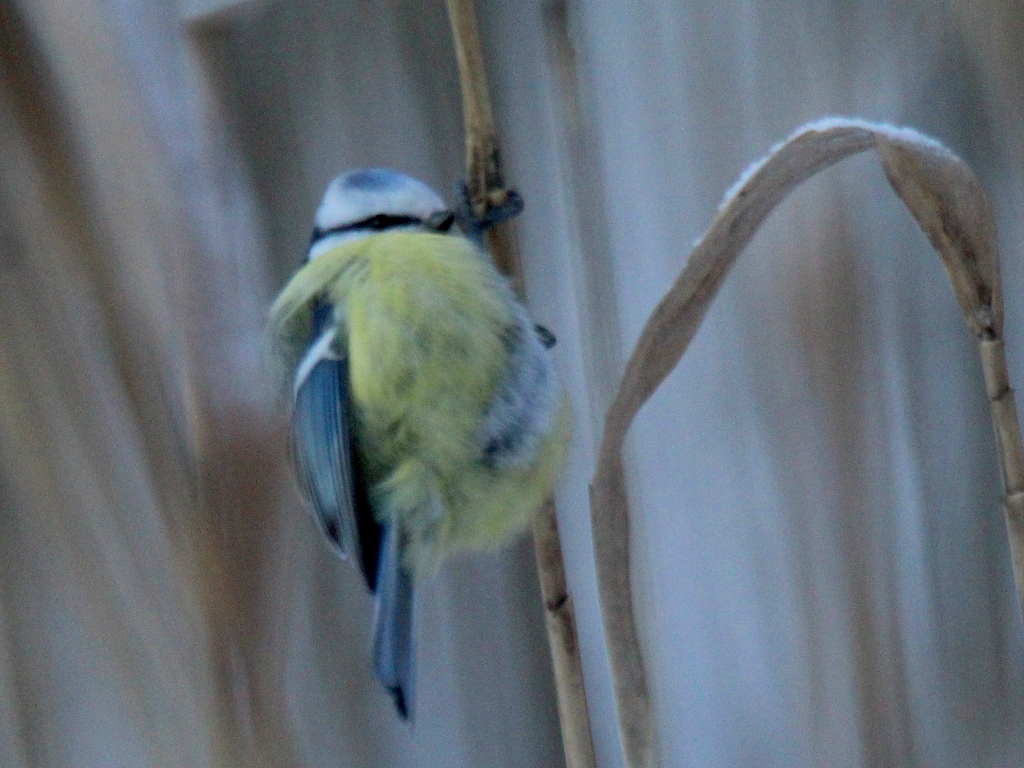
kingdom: Animalia
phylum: Chordata
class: Aves
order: Passeriformes
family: Paridae
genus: Cyanistes
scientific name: Cyanistes caeruleus
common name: Eurasian blue tit
